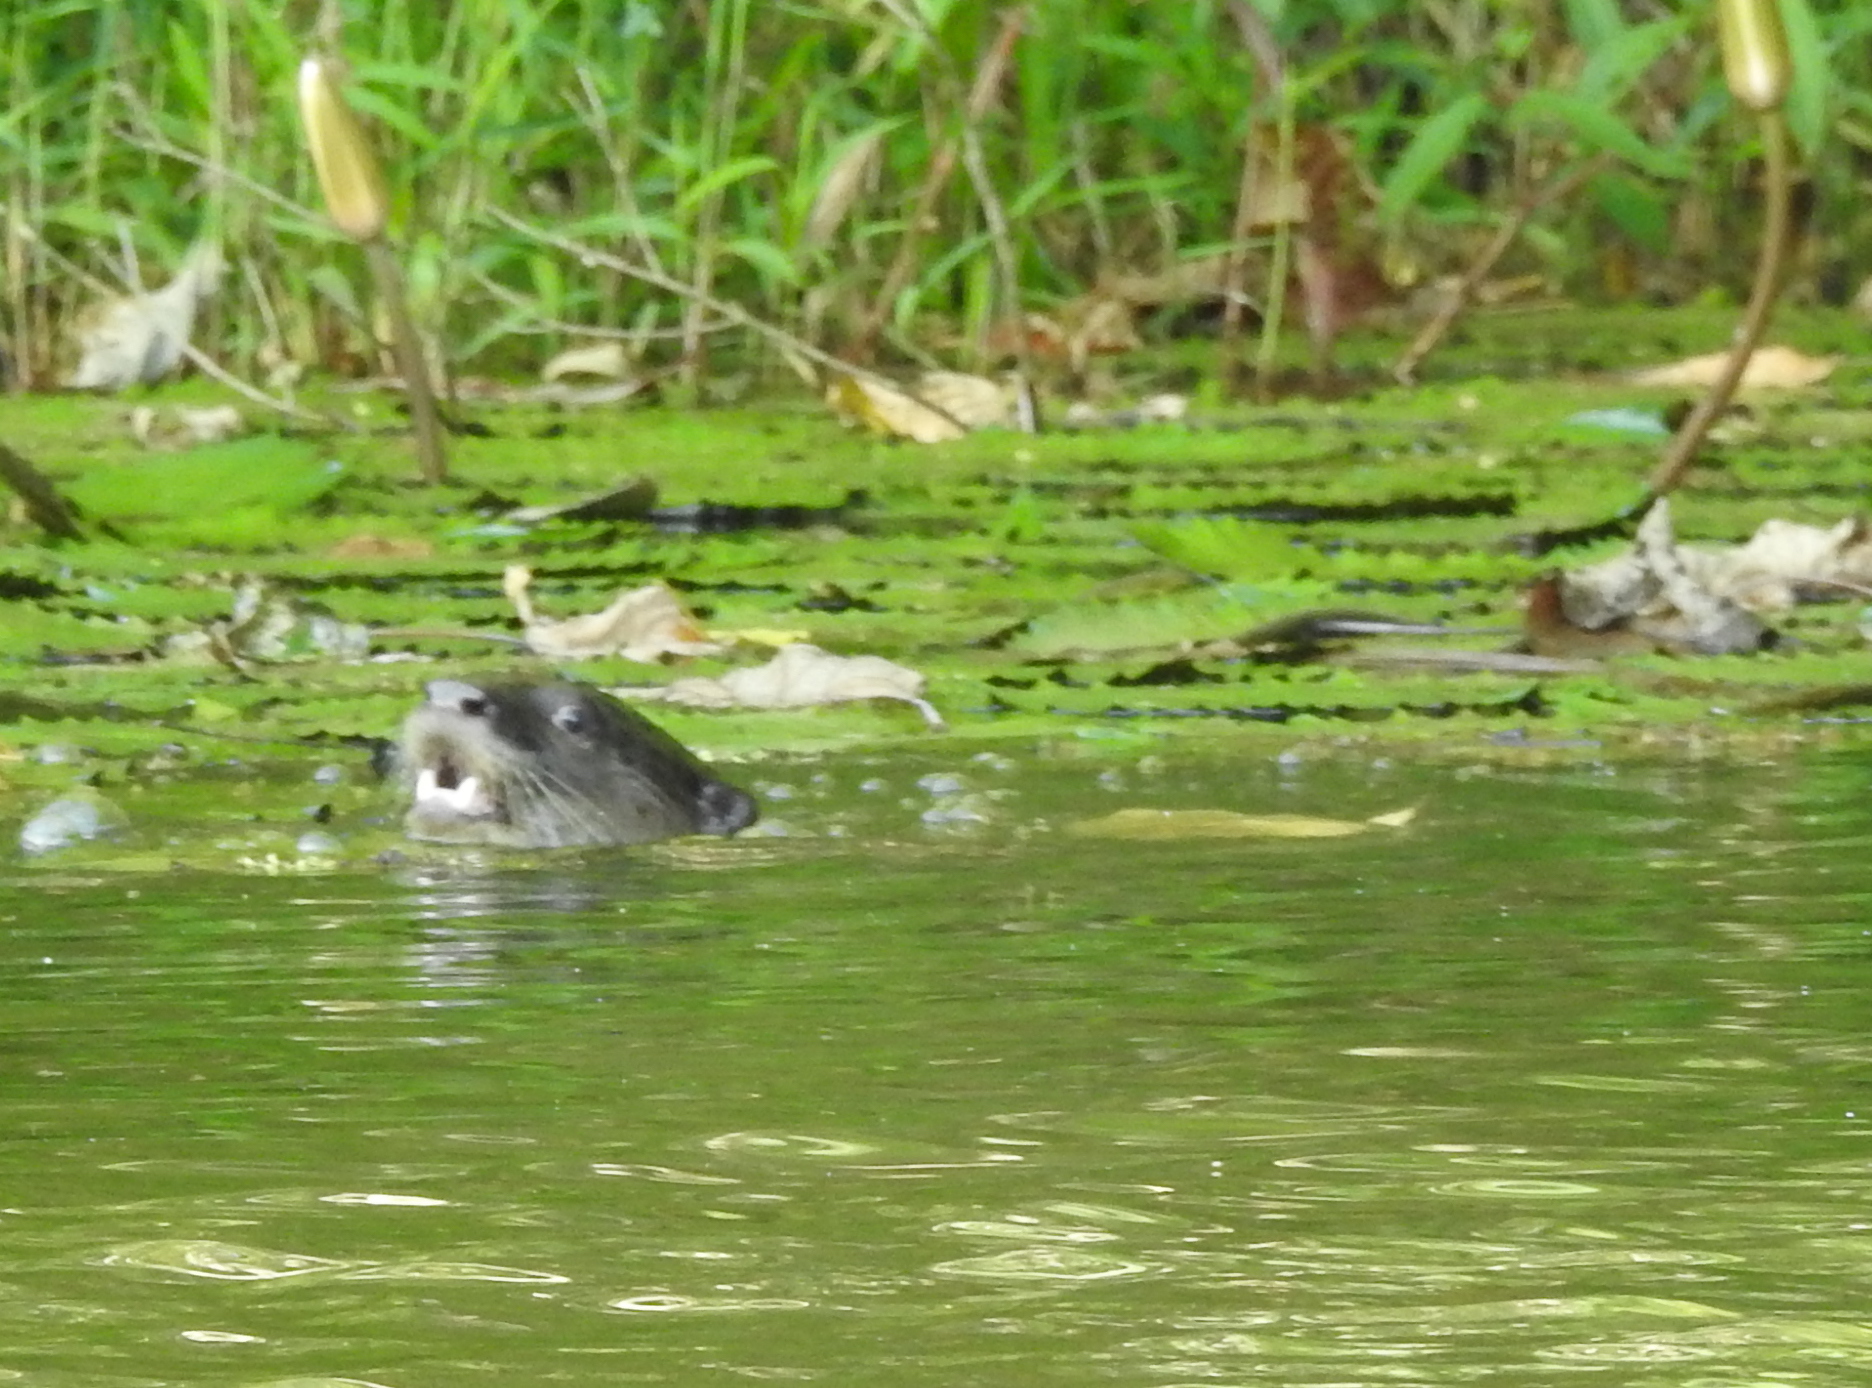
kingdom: Animalia
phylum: Chordata
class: Mammalia
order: Carnivora
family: Mustelidae
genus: Lutrogale
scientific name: Lutrogale perspicillata
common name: Smooth-coated otter
